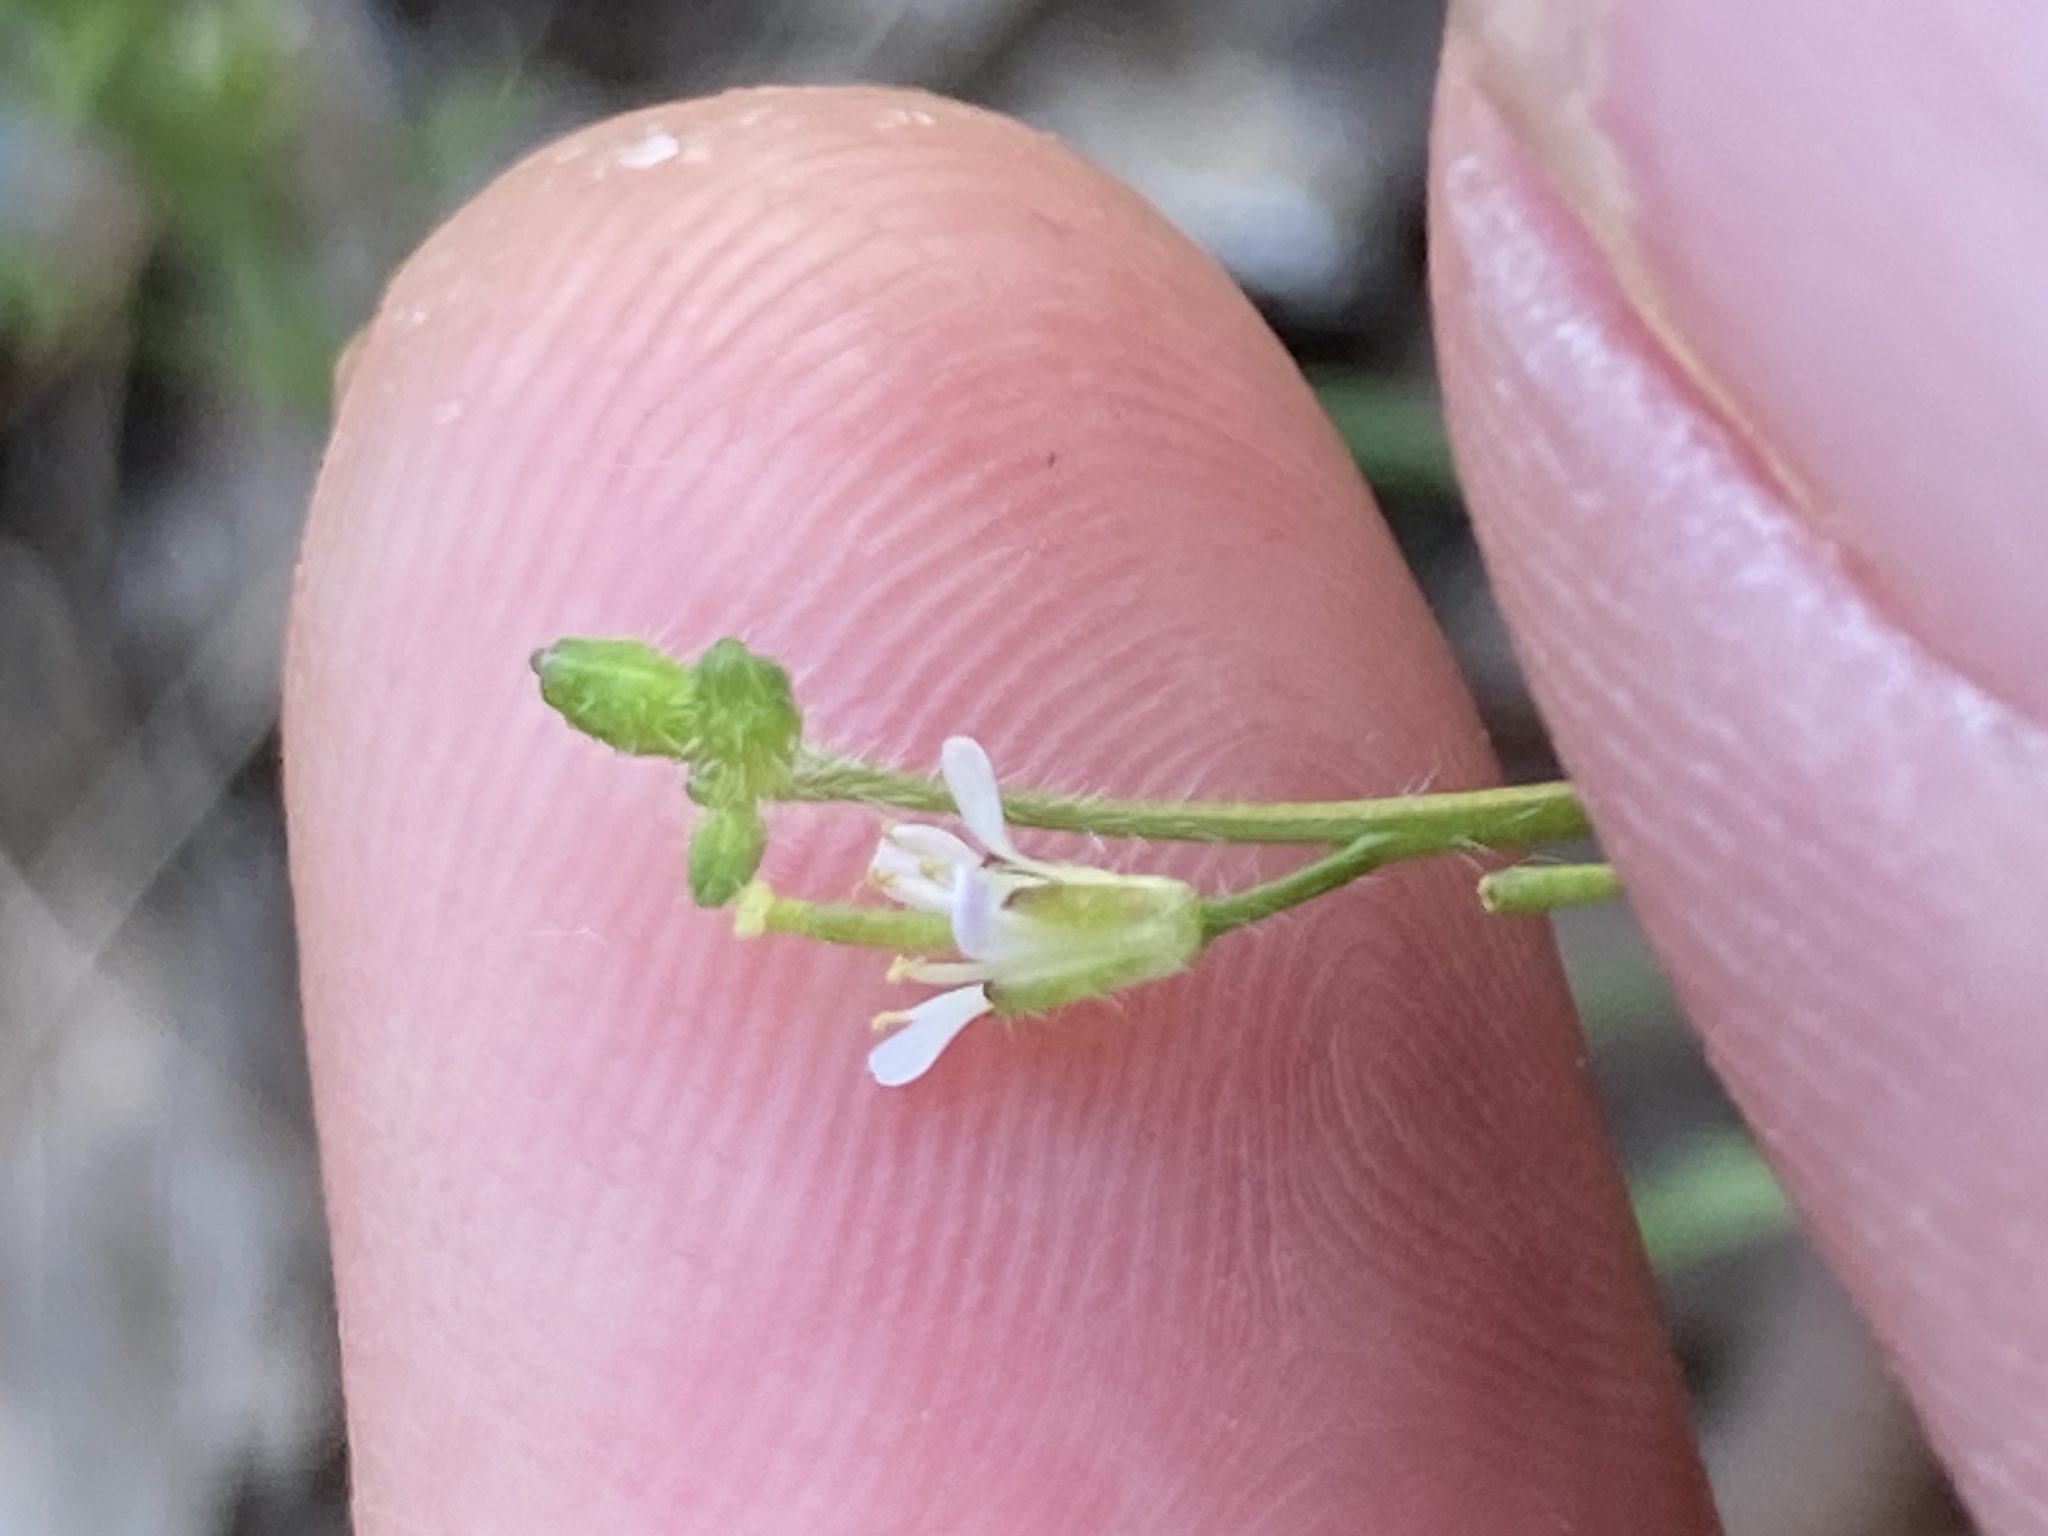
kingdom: Plantae
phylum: Tracheophyta
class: Magnoliopsida
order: Brassicales
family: Brassicaceae
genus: Streptanthus
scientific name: Streptanthus lasiophyllus
